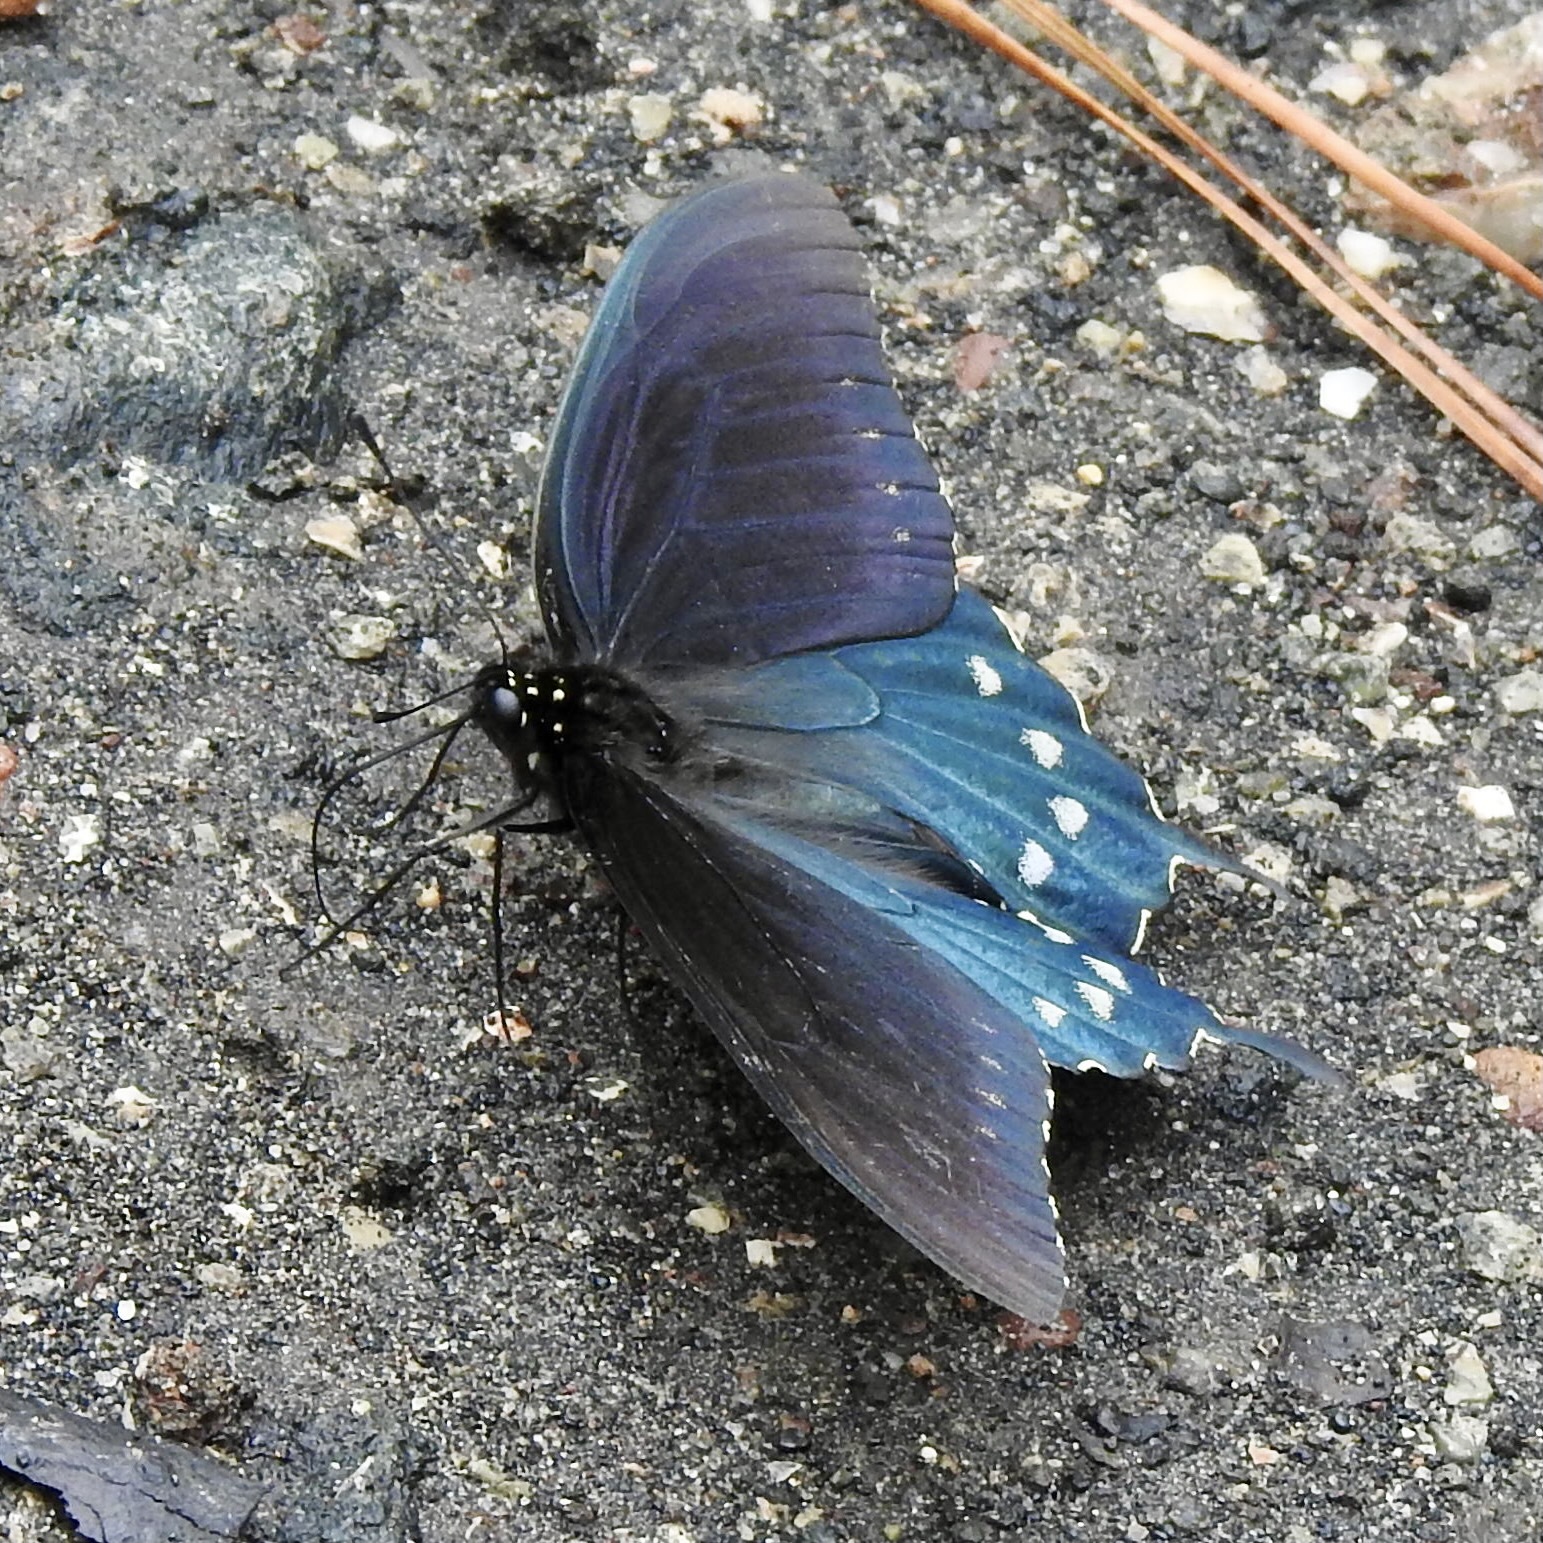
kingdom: Animalia
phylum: Arthropoda
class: Insecta
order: Lepidoptera
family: Papilionidae
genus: Battus
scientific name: Battus philenor
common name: Pipevine swallowtail
